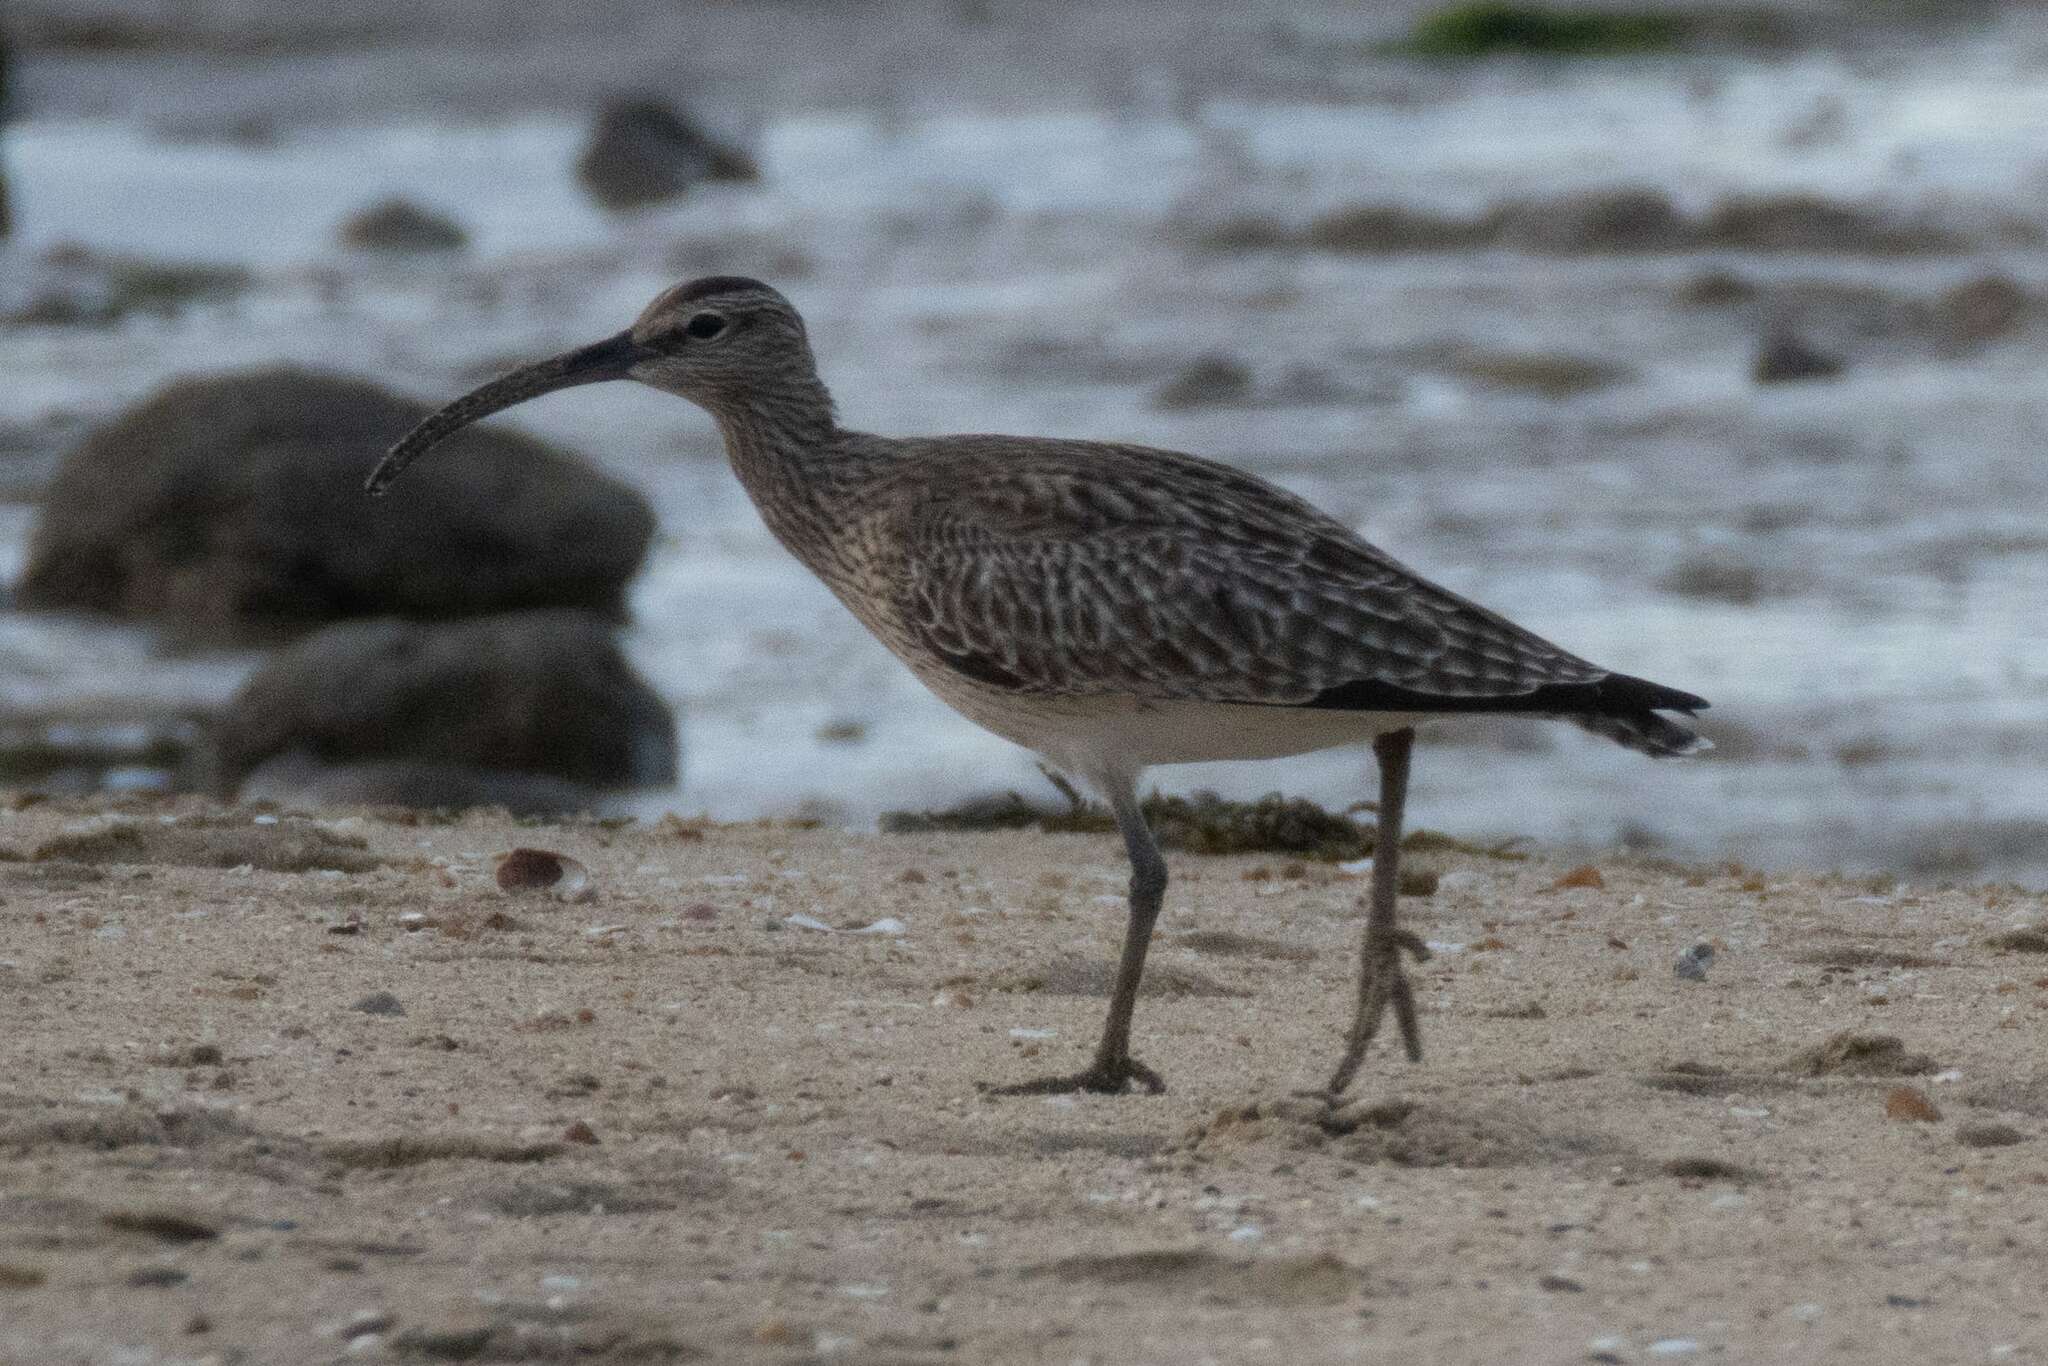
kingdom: Animalia
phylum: Chordata
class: Aves
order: Charadriiformes
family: Scolopacidae
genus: Numenius
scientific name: Numenius phaeopus
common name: Whimbrel
